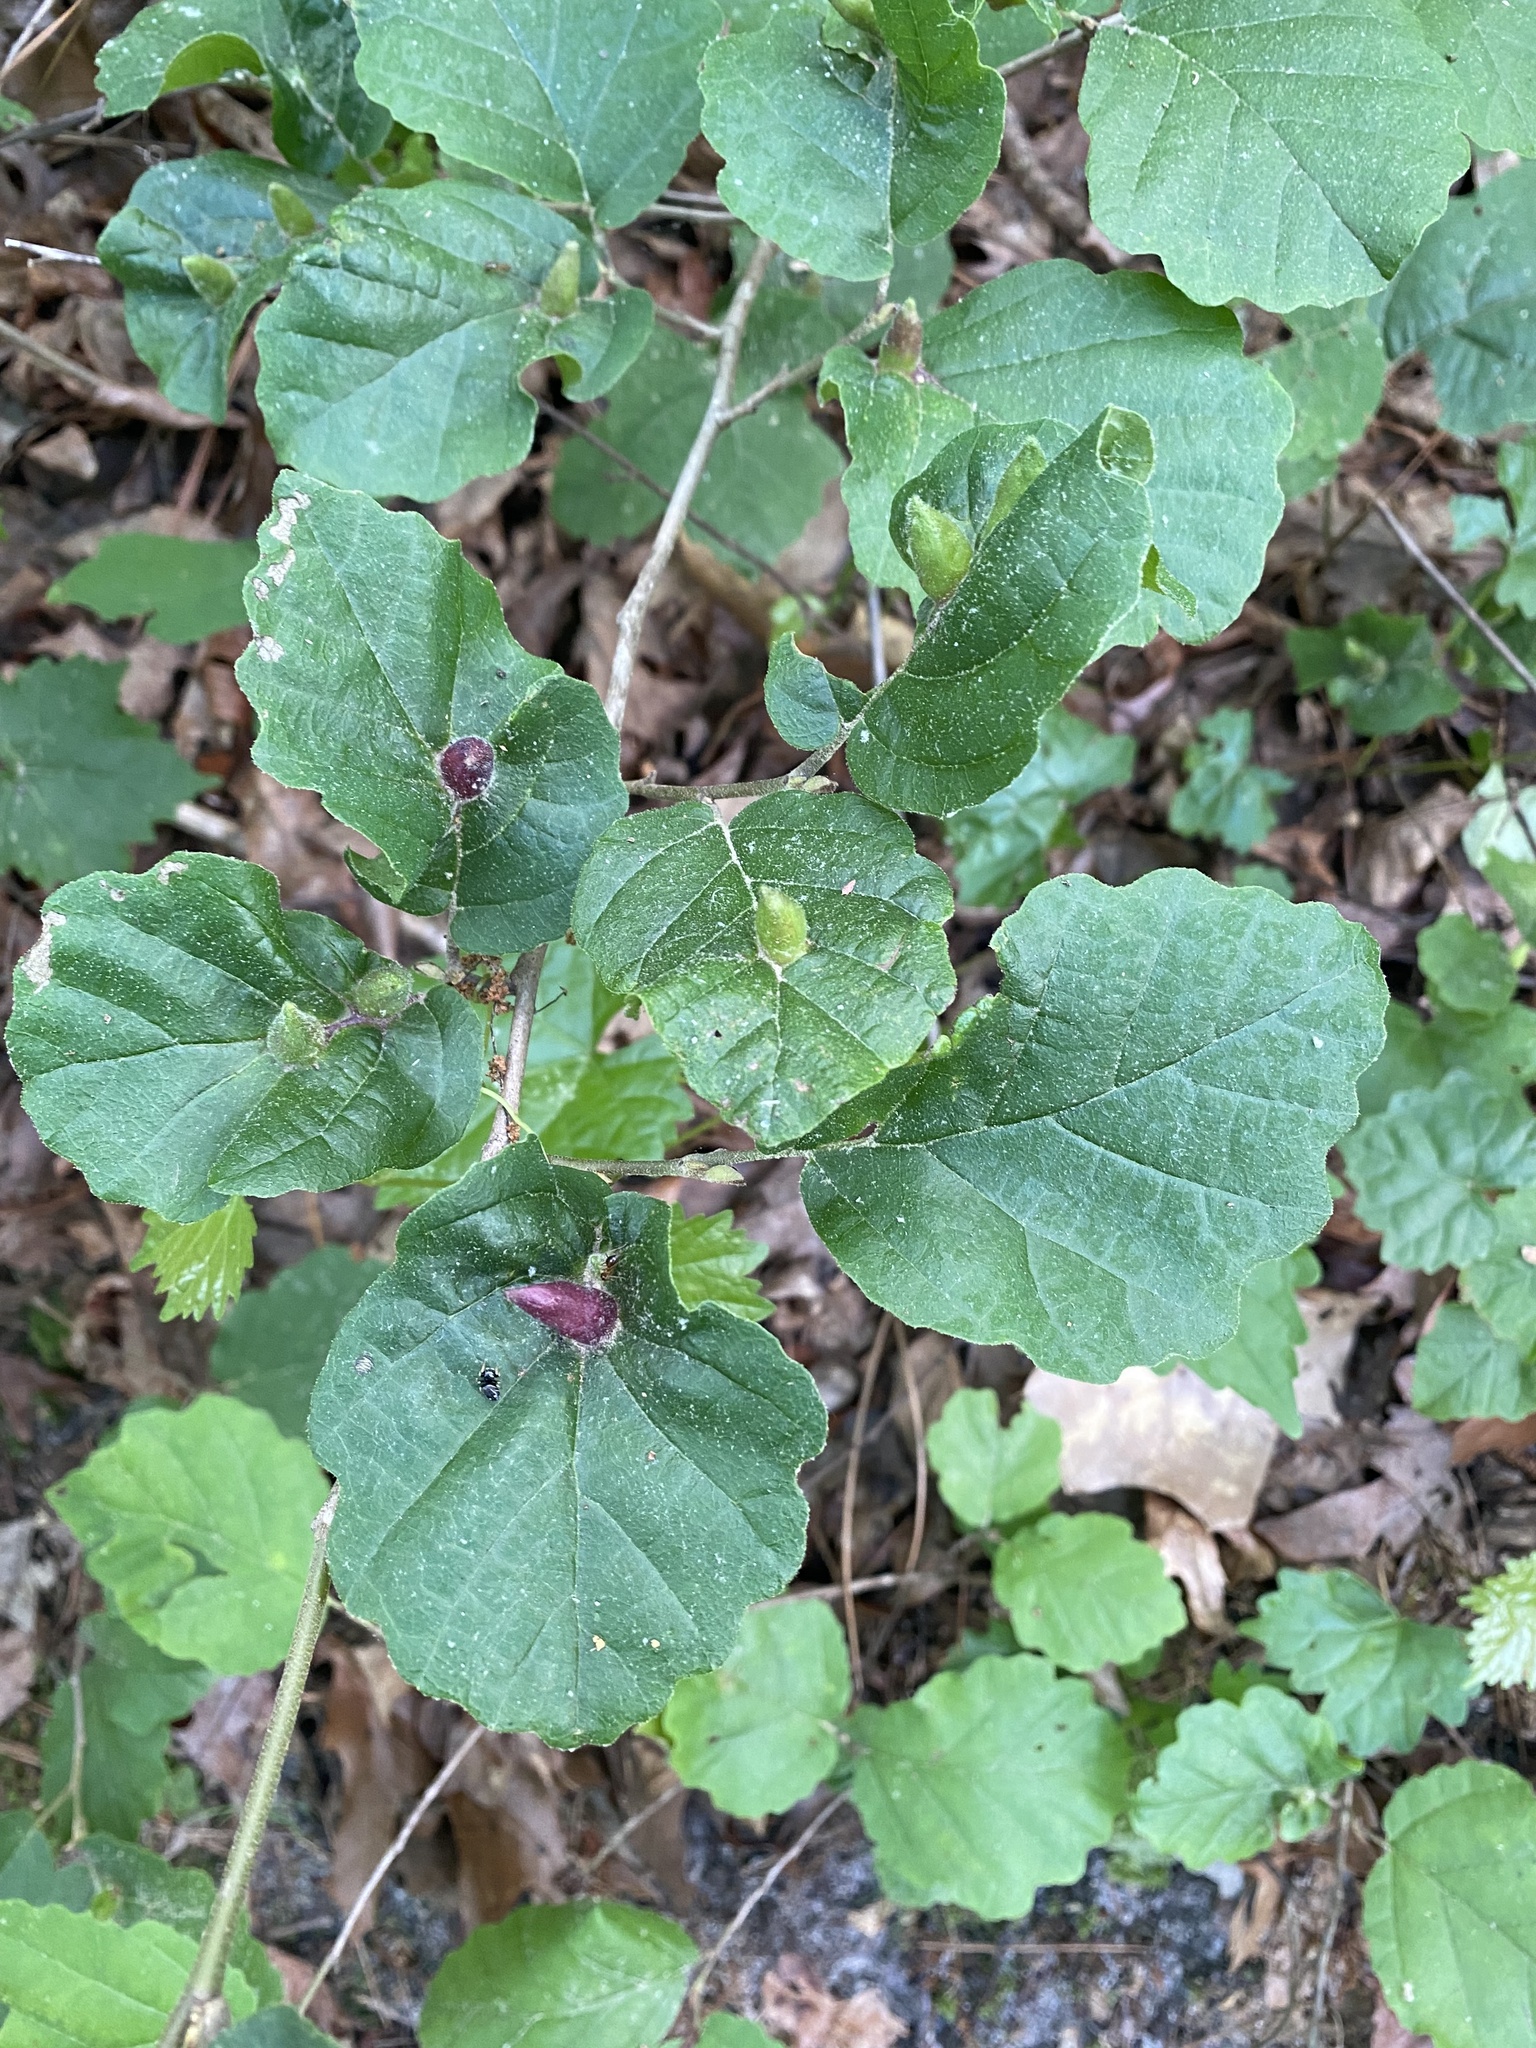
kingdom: Animalia
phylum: Arthropoda
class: Insecta
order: Hemiptera
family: Aphididae
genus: Hormaphis
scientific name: Hormaphis hamamelidis
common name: Witch-hazel cone gall aphid
